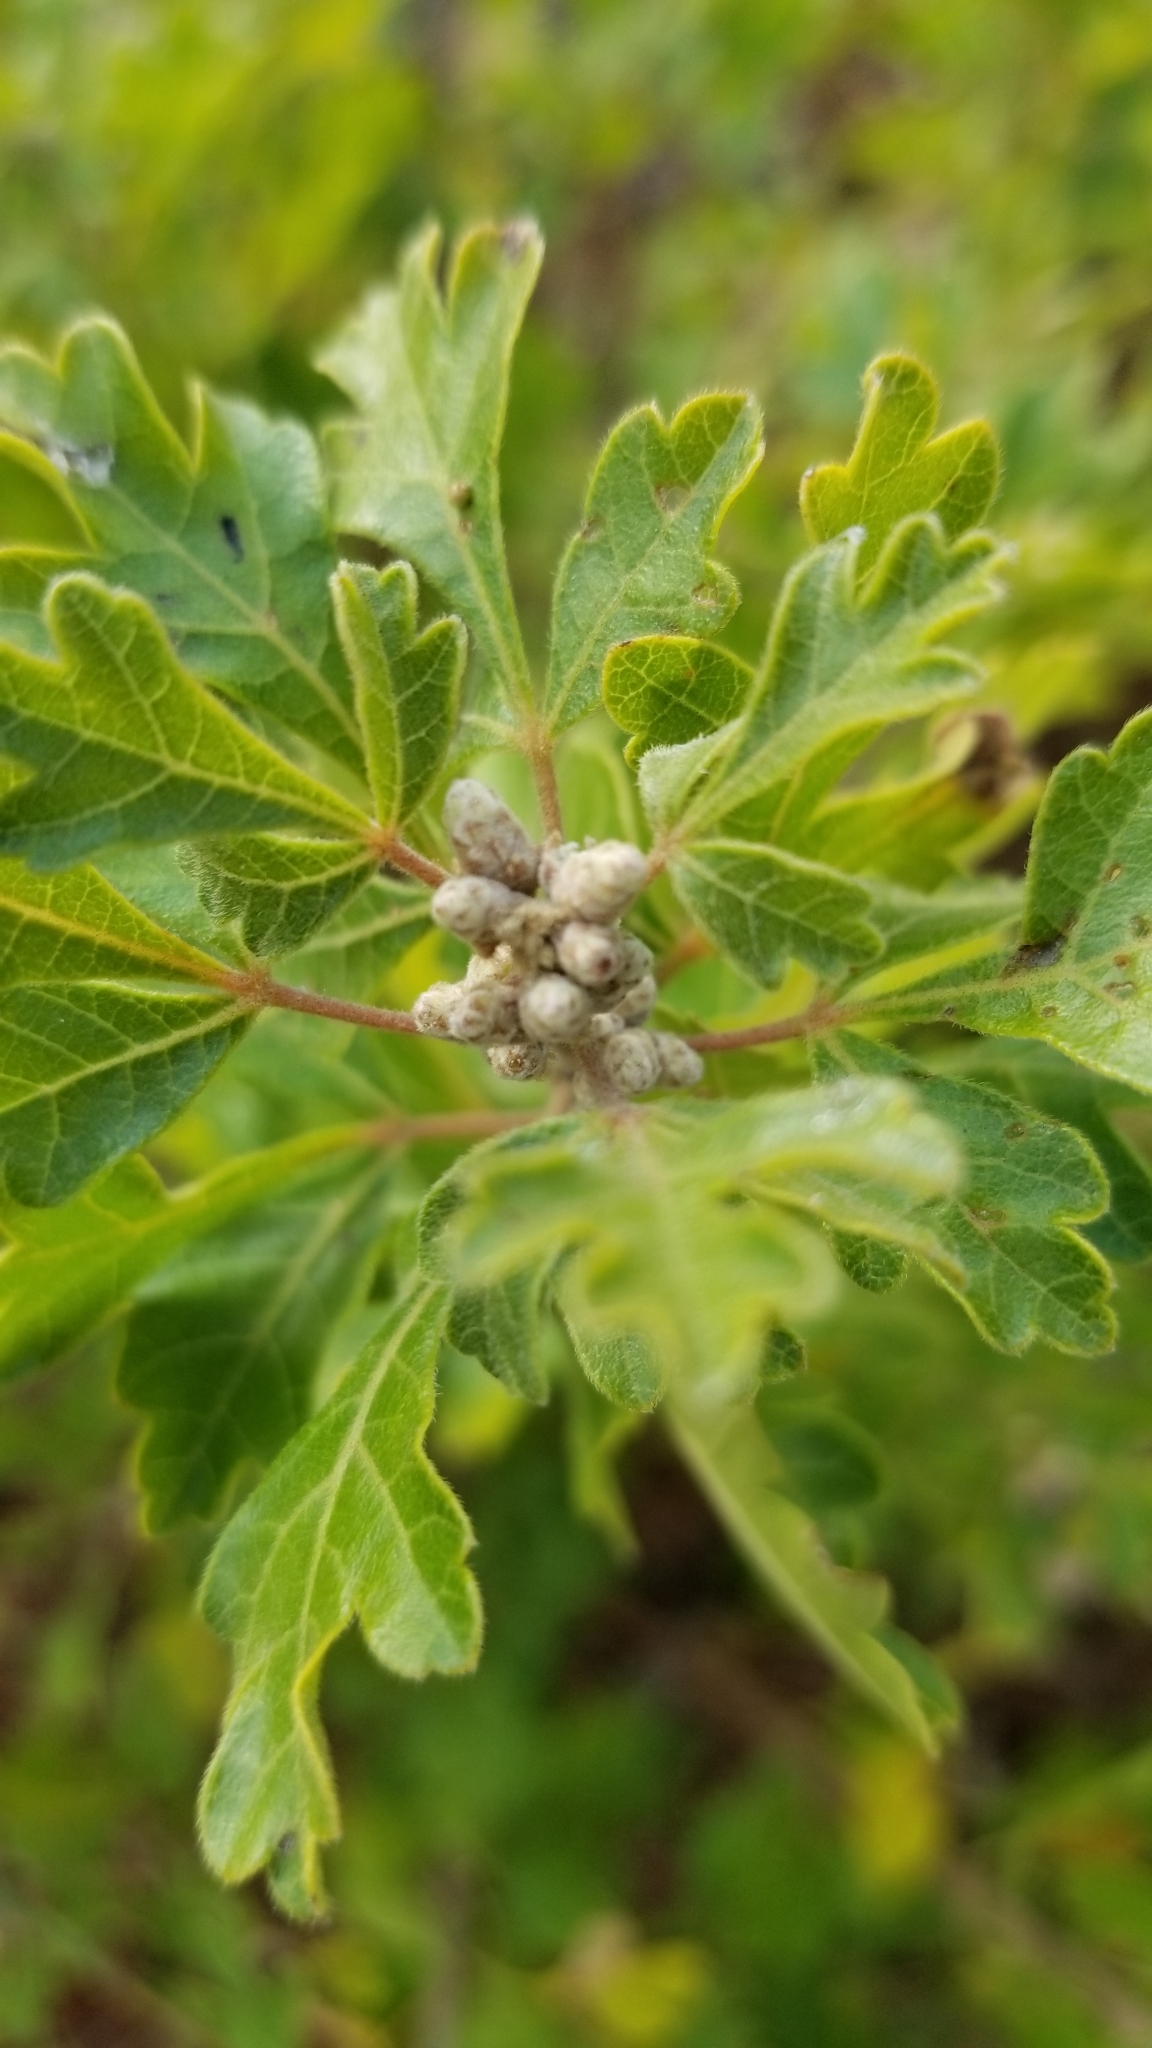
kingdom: Plantae
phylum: Tracheophyta
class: Magnoliopsida
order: Sapindales
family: Anacardiaceae
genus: Rhus
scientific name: Rhus aromatica
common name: Aromatic sumac
